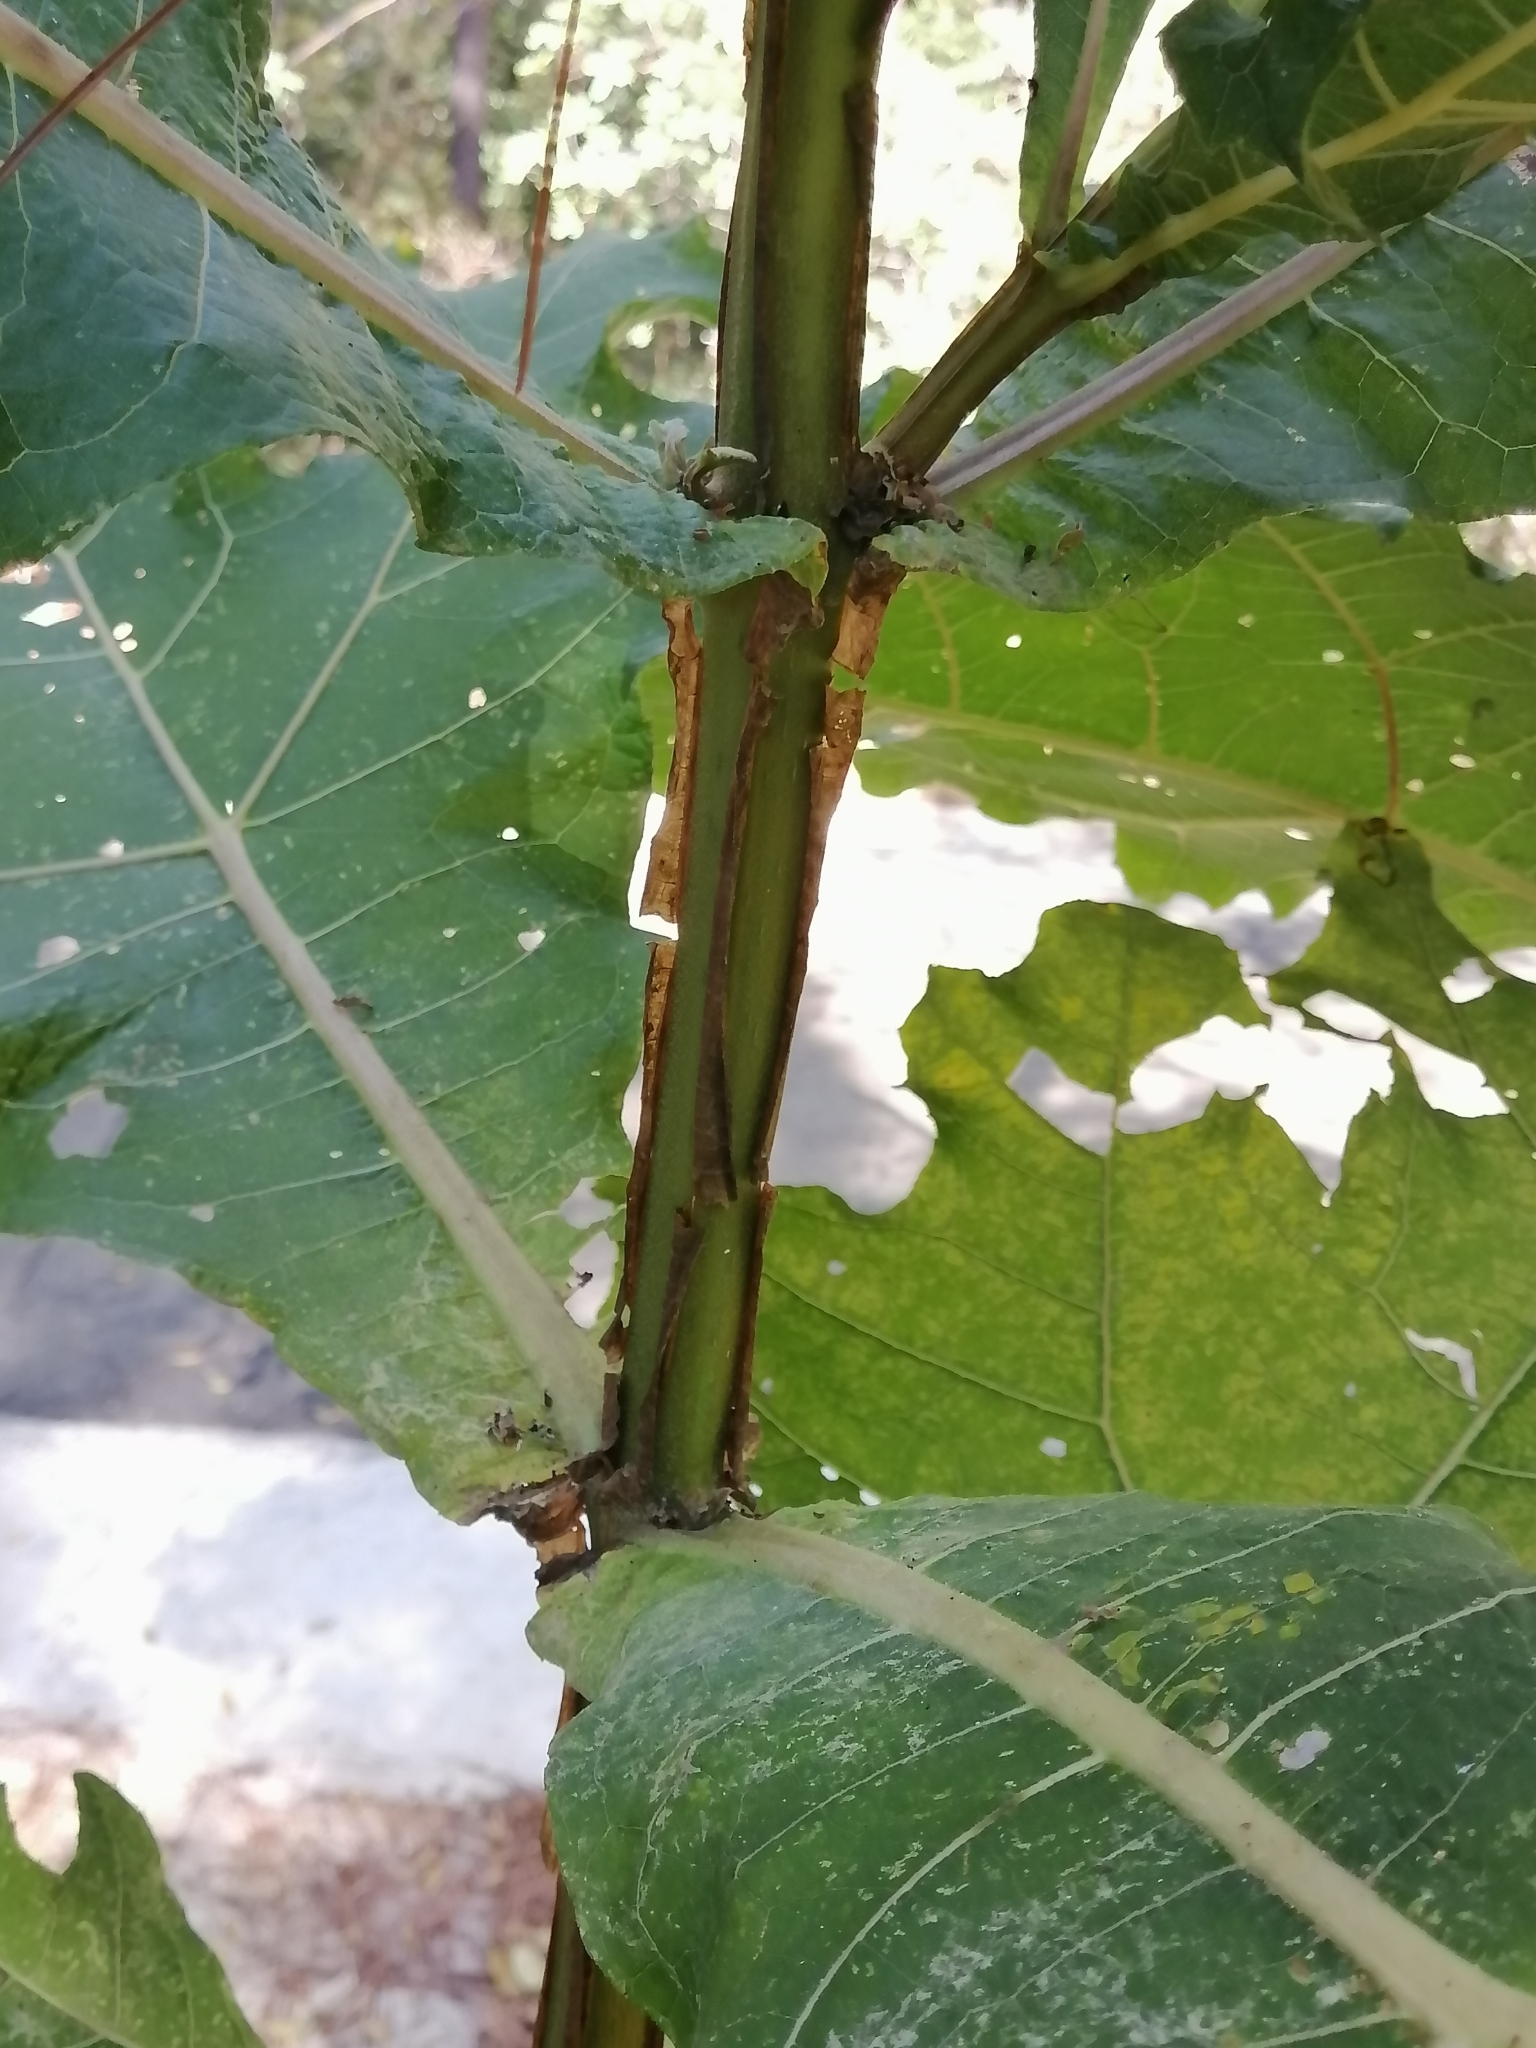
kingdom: Plantae
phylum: Tracheophyta
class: Magnoliopsida
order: Asterales
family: Asteraceae
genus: Verbesina
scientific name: Verbesina fastigiata
